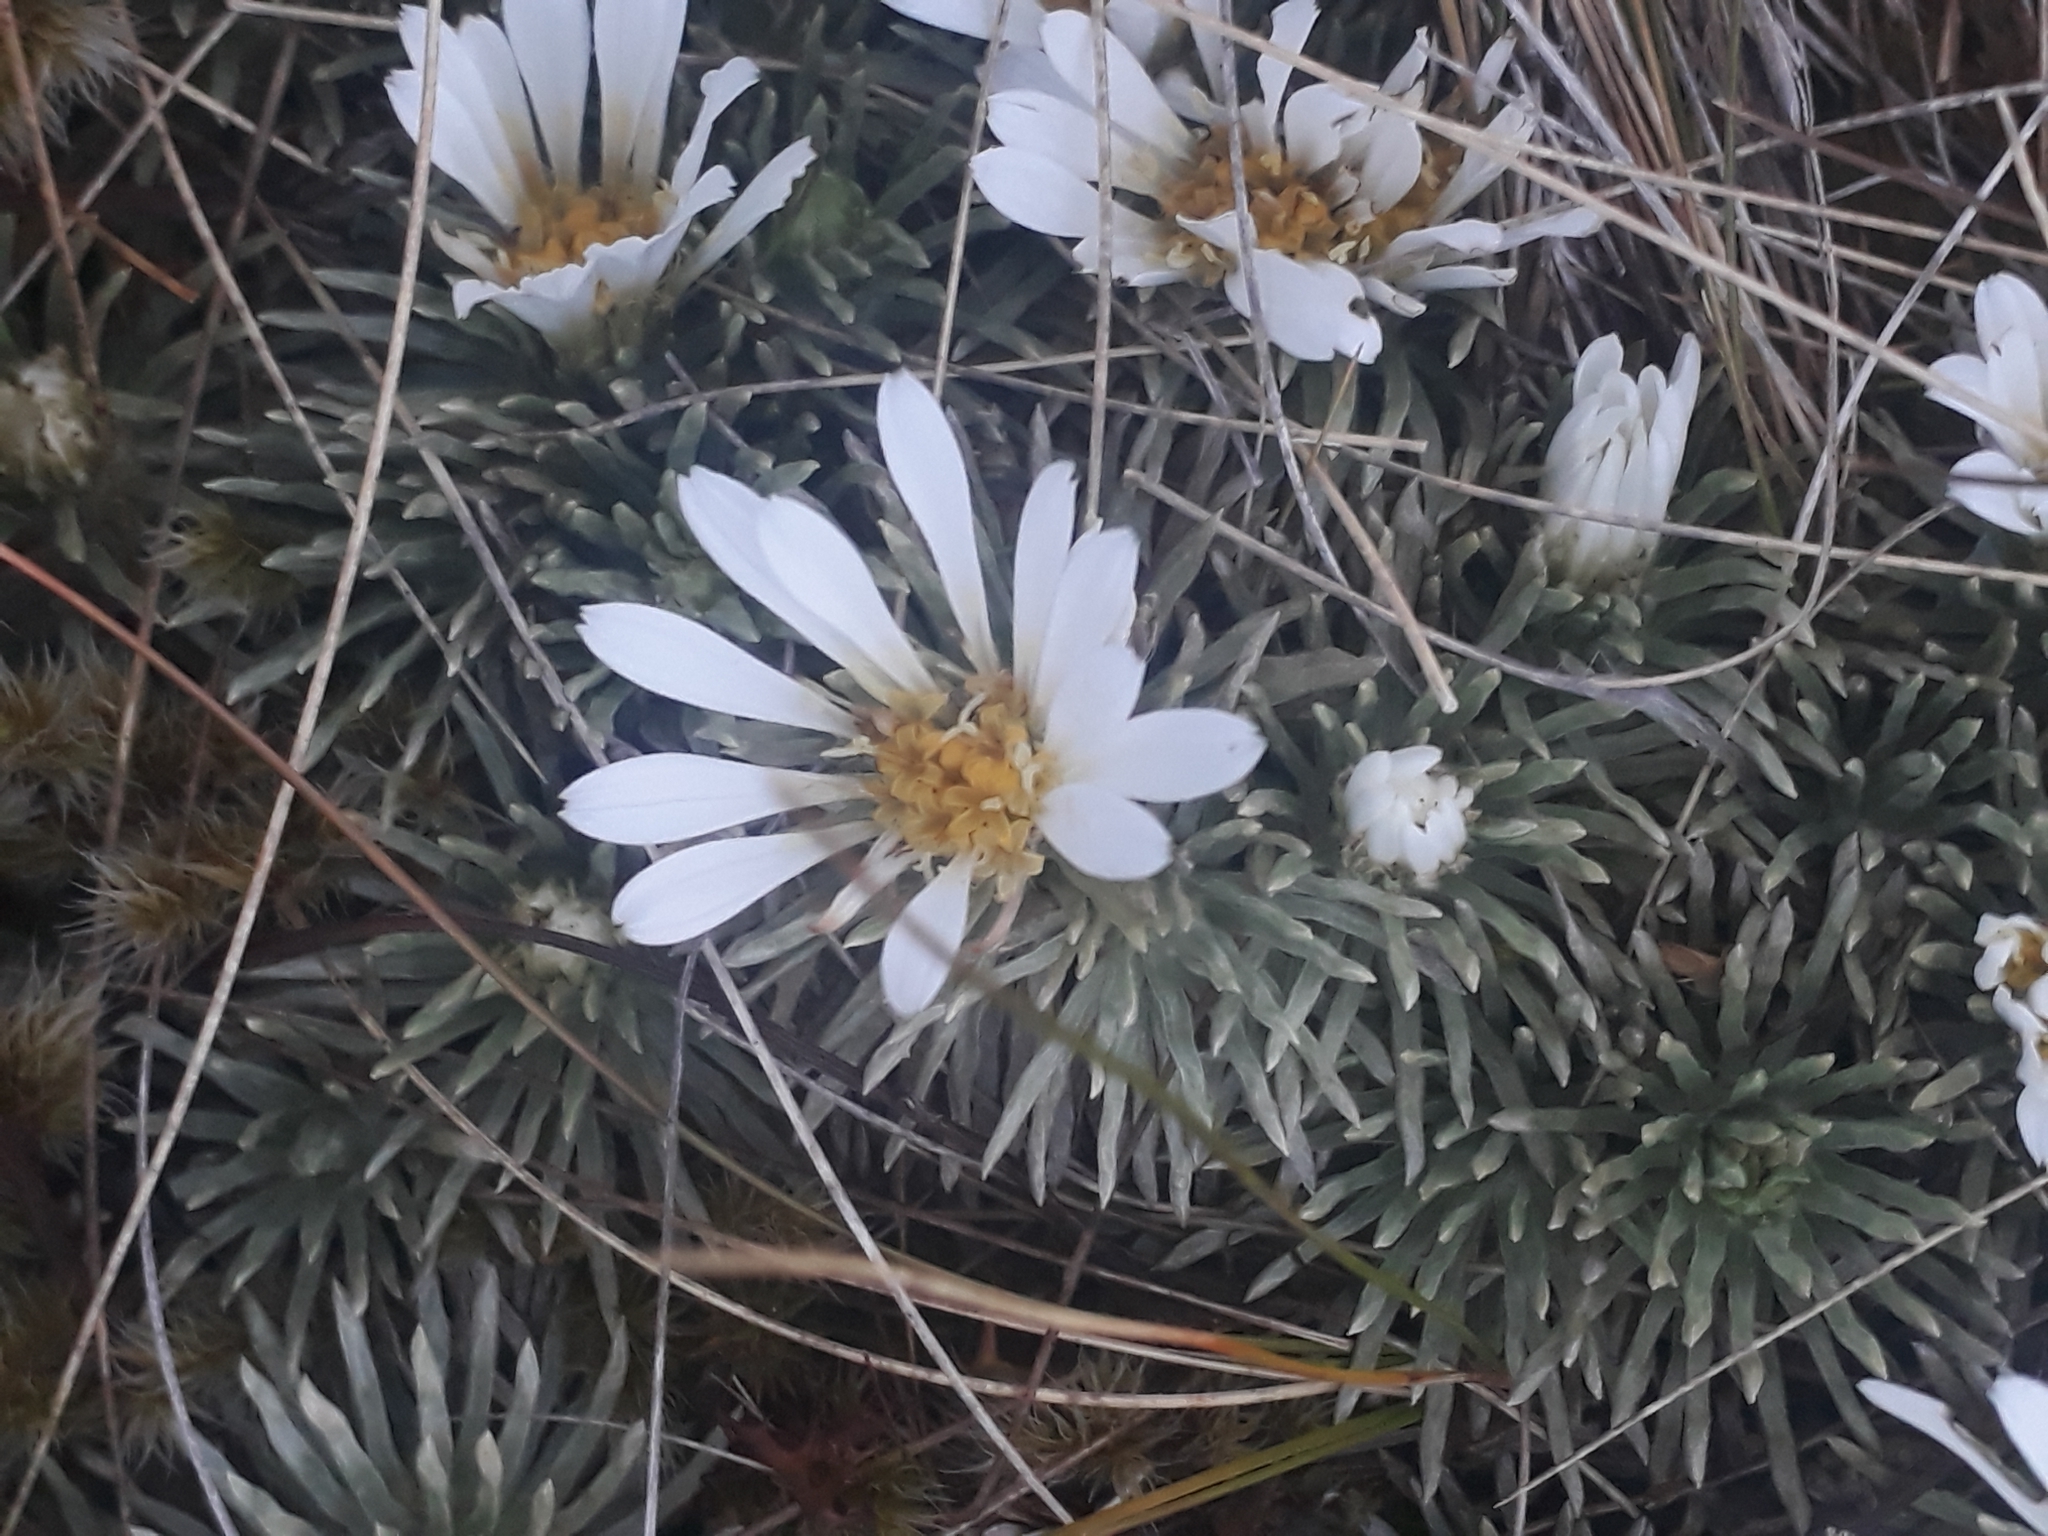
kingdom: Plantae
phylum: Tracheophyta
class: Magnoliopsida
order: Asterales
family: Asteraceae
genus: Celmisia
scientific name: Celmisia sessiliflora
